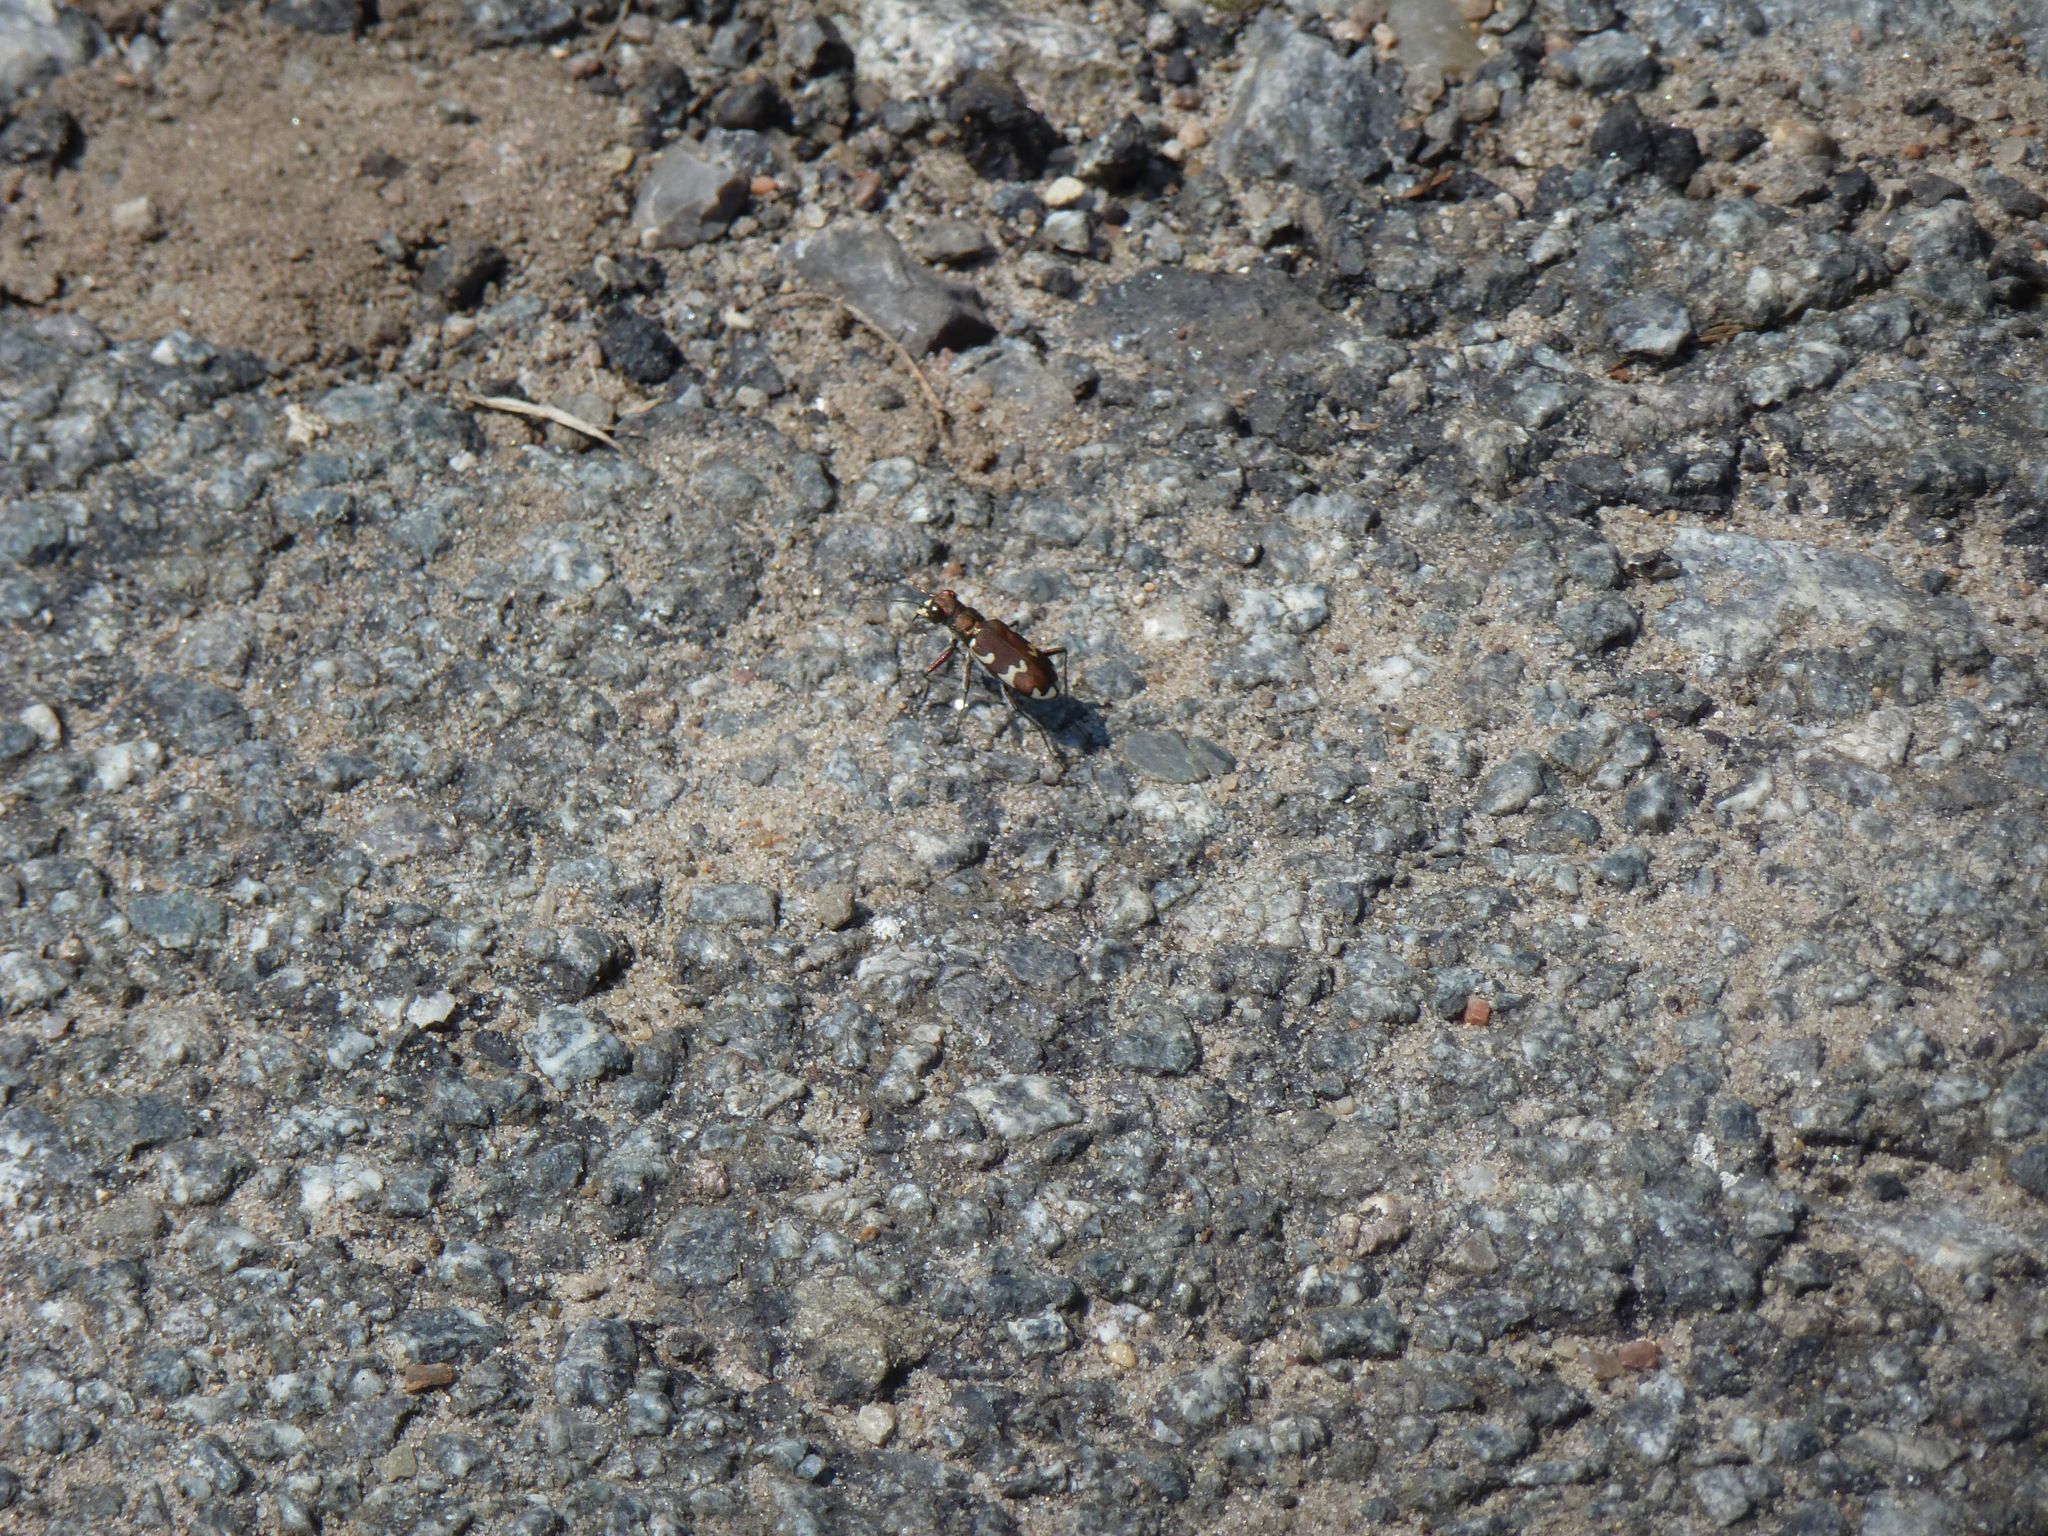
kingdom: Animalia
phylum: Arthropoda
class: Insecta
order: Coleoptera
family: Carabidae
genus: Cicindela
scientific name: Cicindela hybrida
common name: Northern dune tiger beetle
